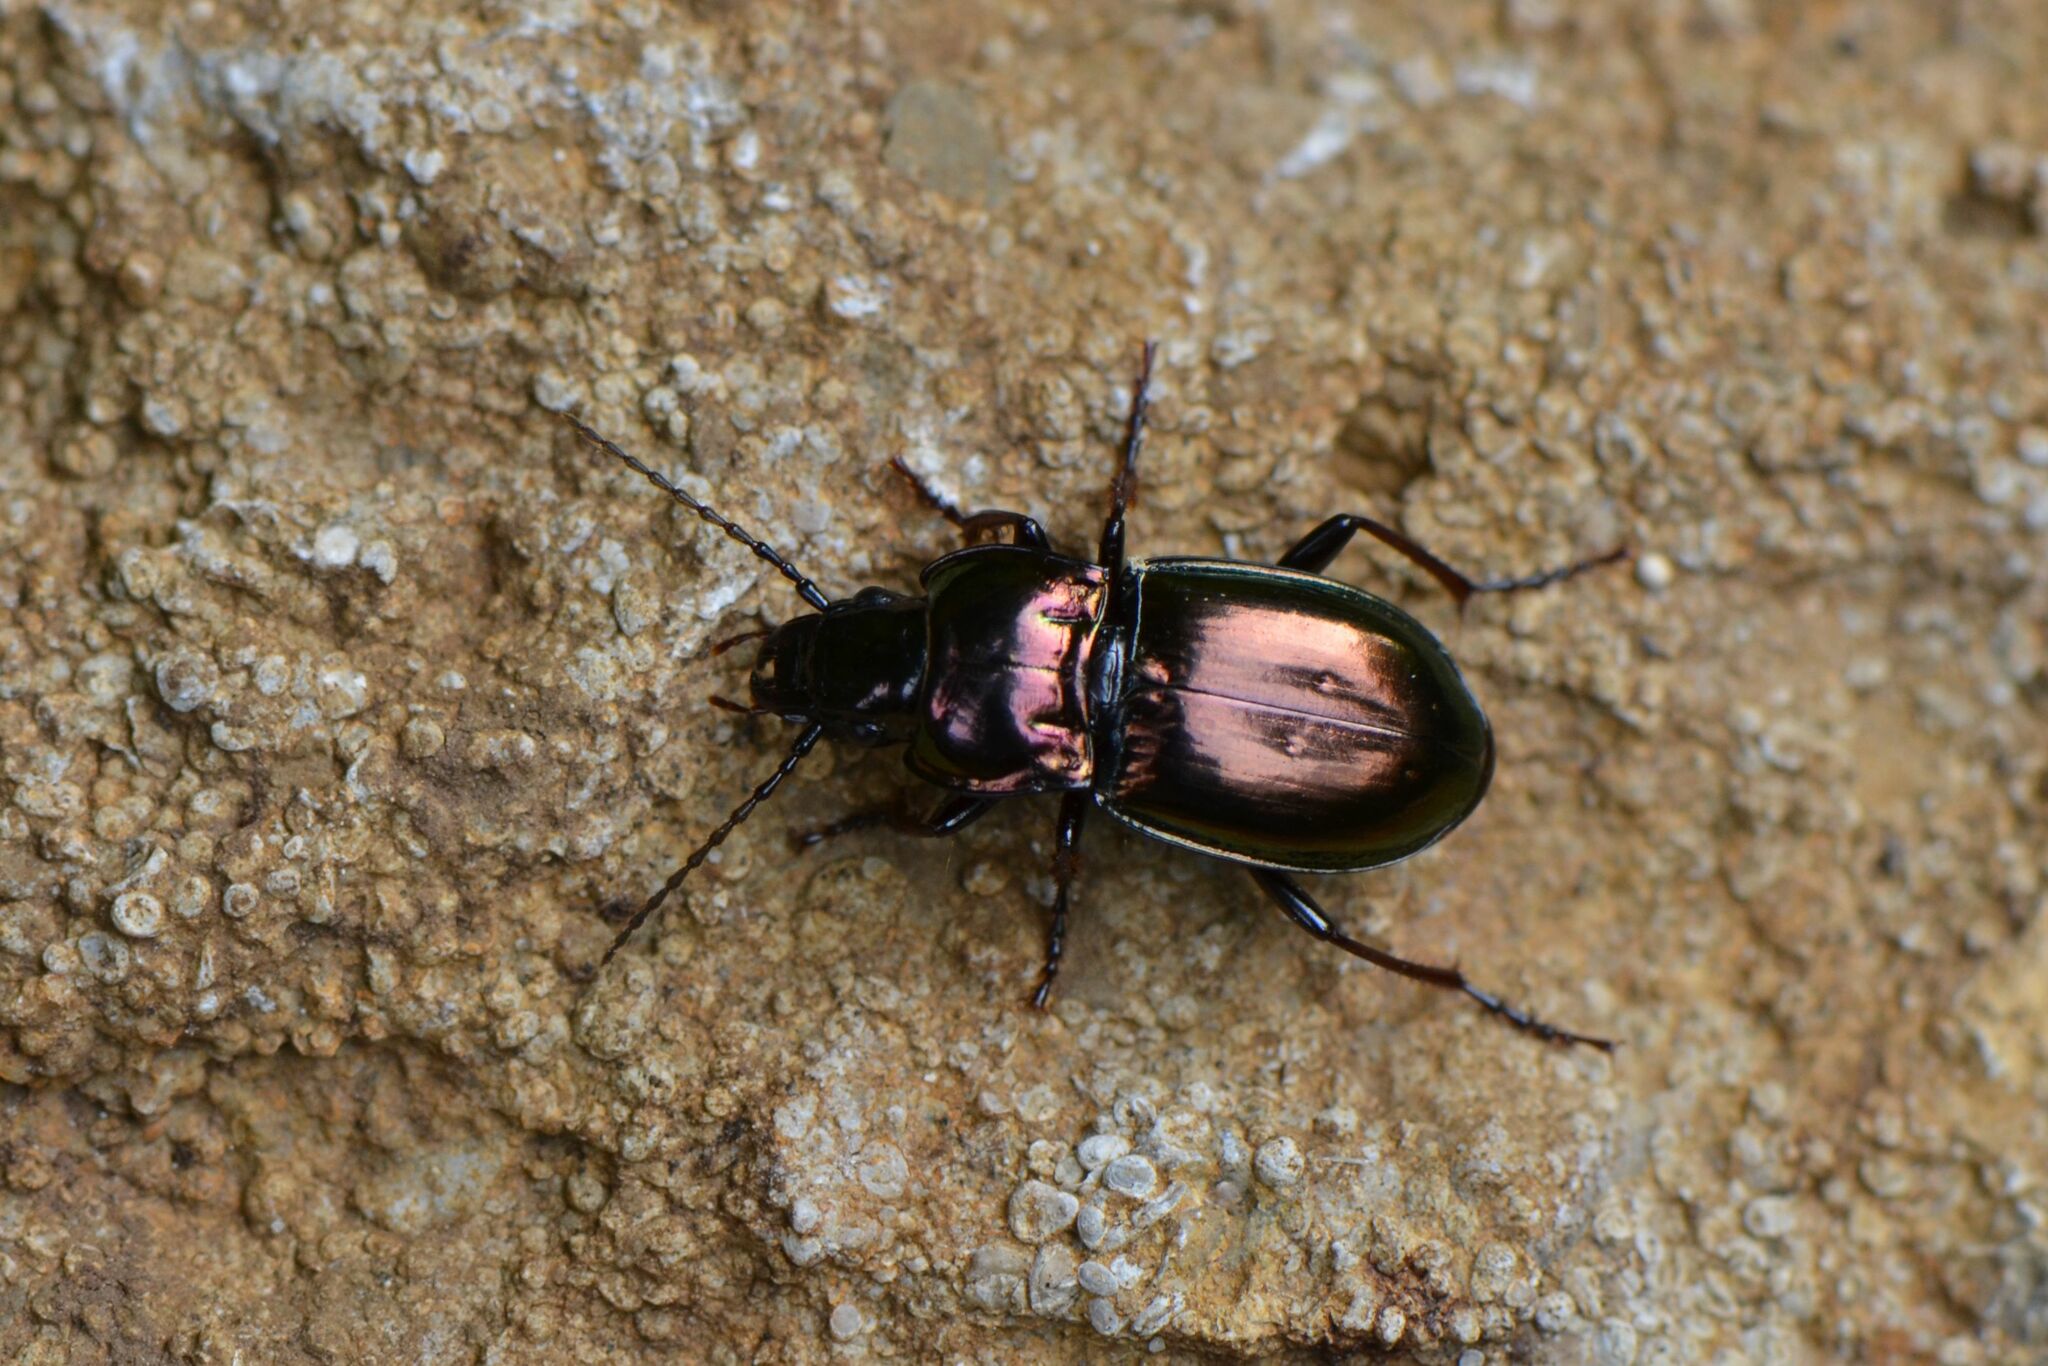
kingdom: Animalia
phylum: Arthropoda
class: Insecta
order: Coleoptera
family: Carabidae
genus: Pterostichus
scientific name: Pterostichus burmeisteri
